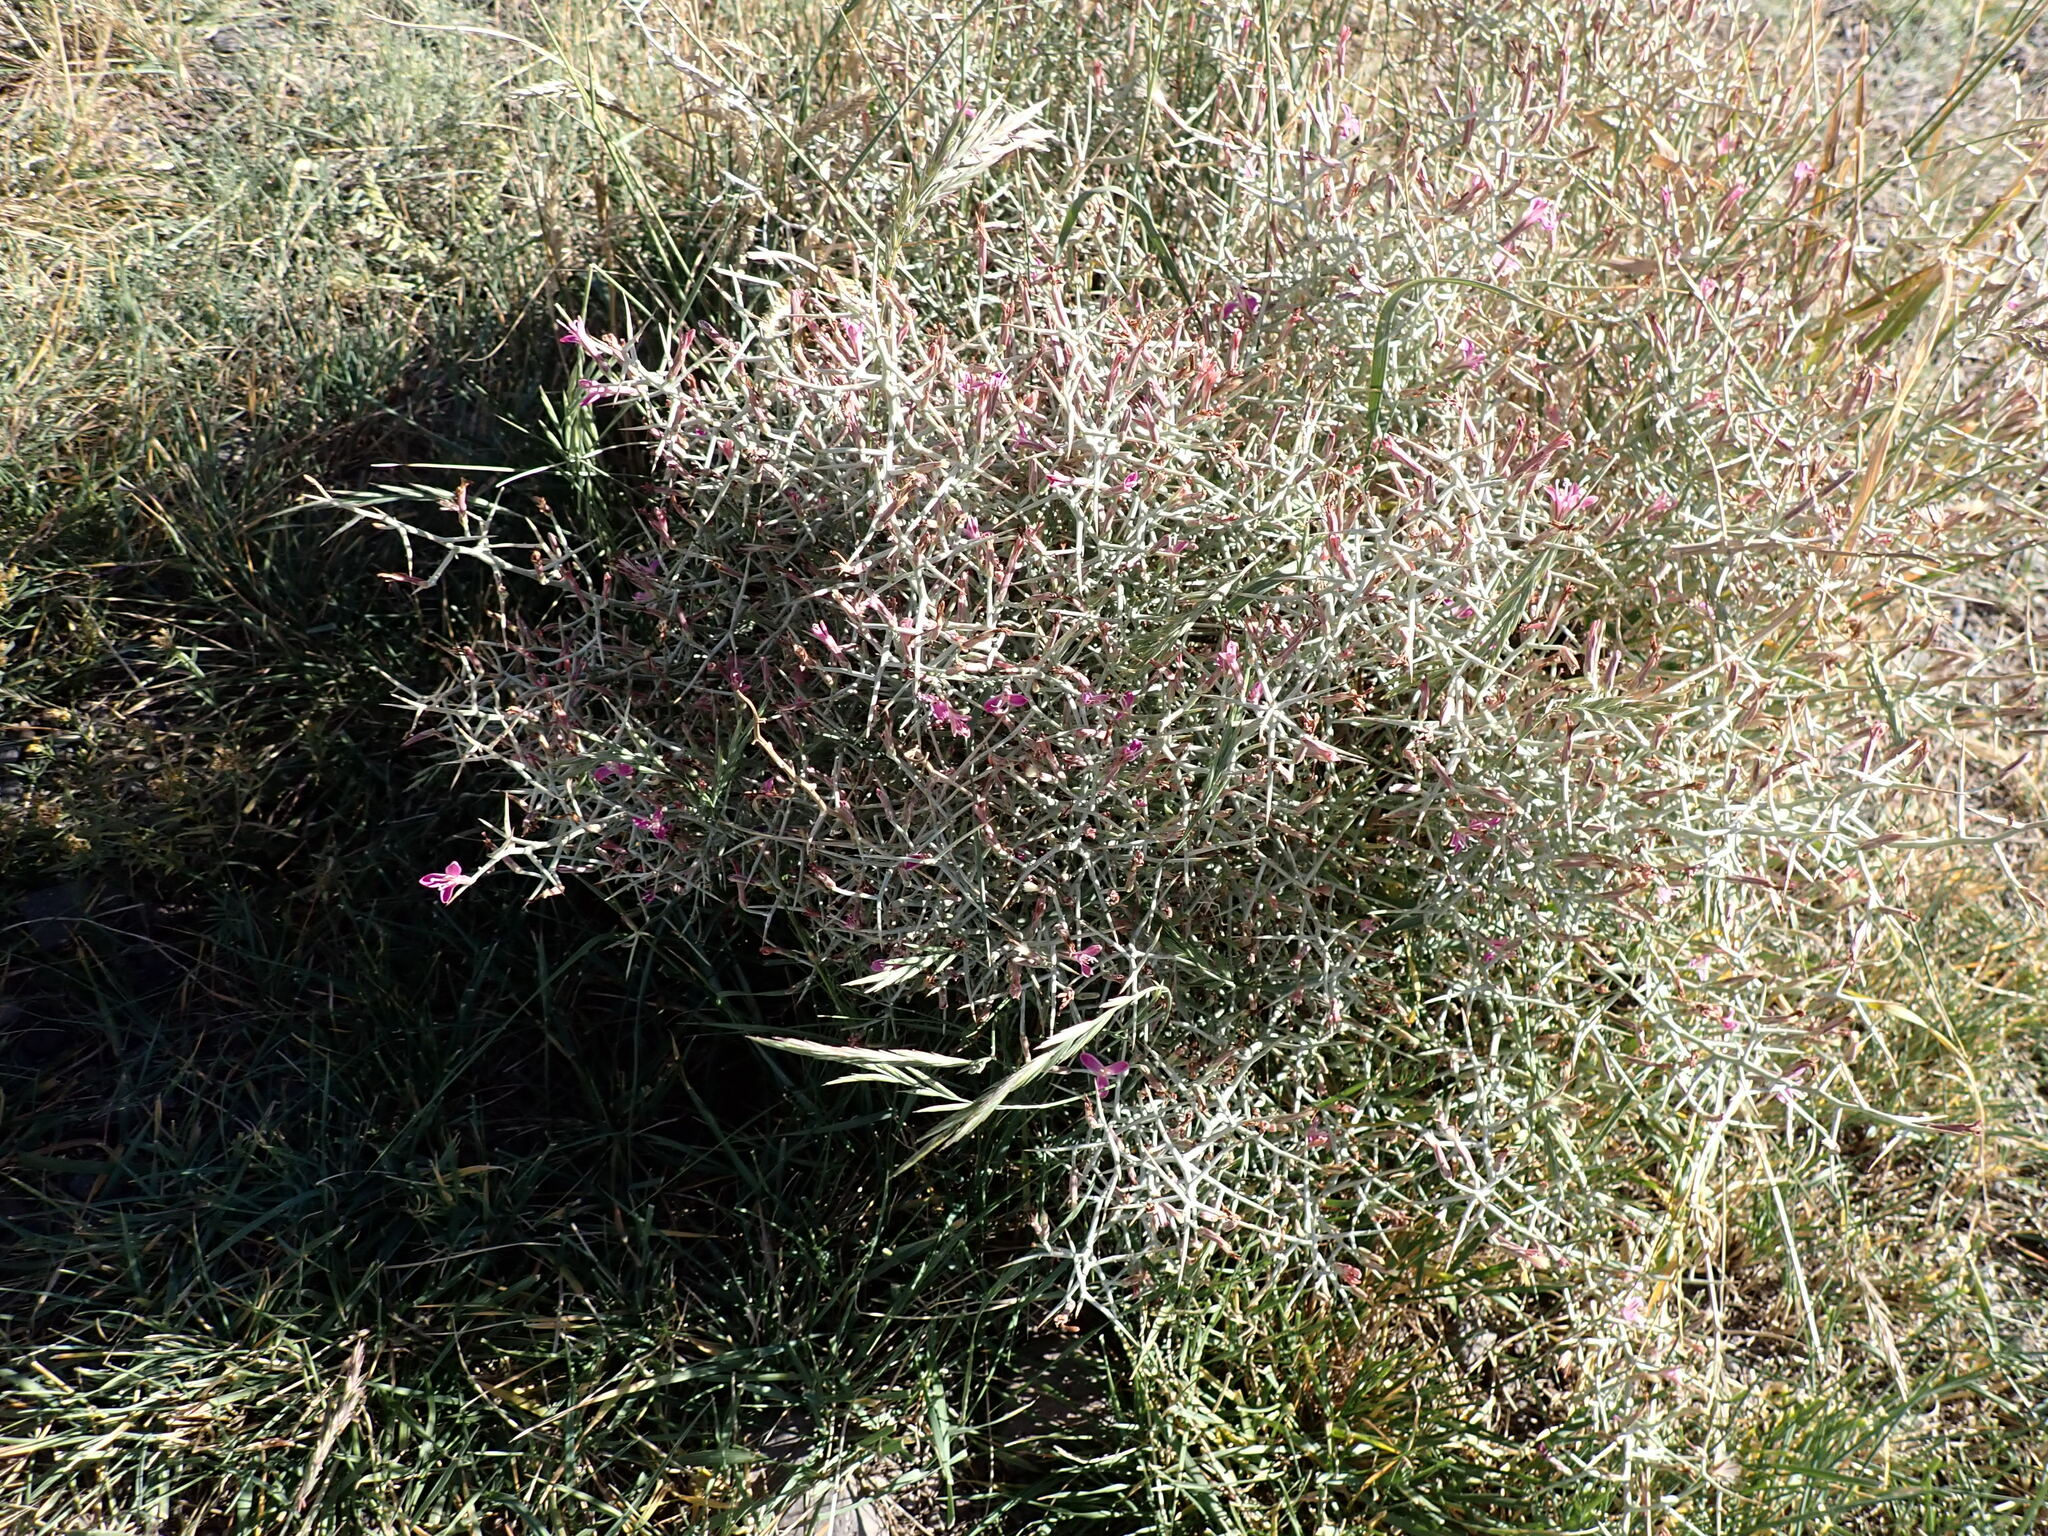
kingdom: Plantae
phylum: Tracheophyta
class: Magnoliopsida
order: Asterales
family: Asteraceae
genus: Pleiacanthus
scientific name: Pleiacanthus spinosus
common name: Thorny skeleton-weed
